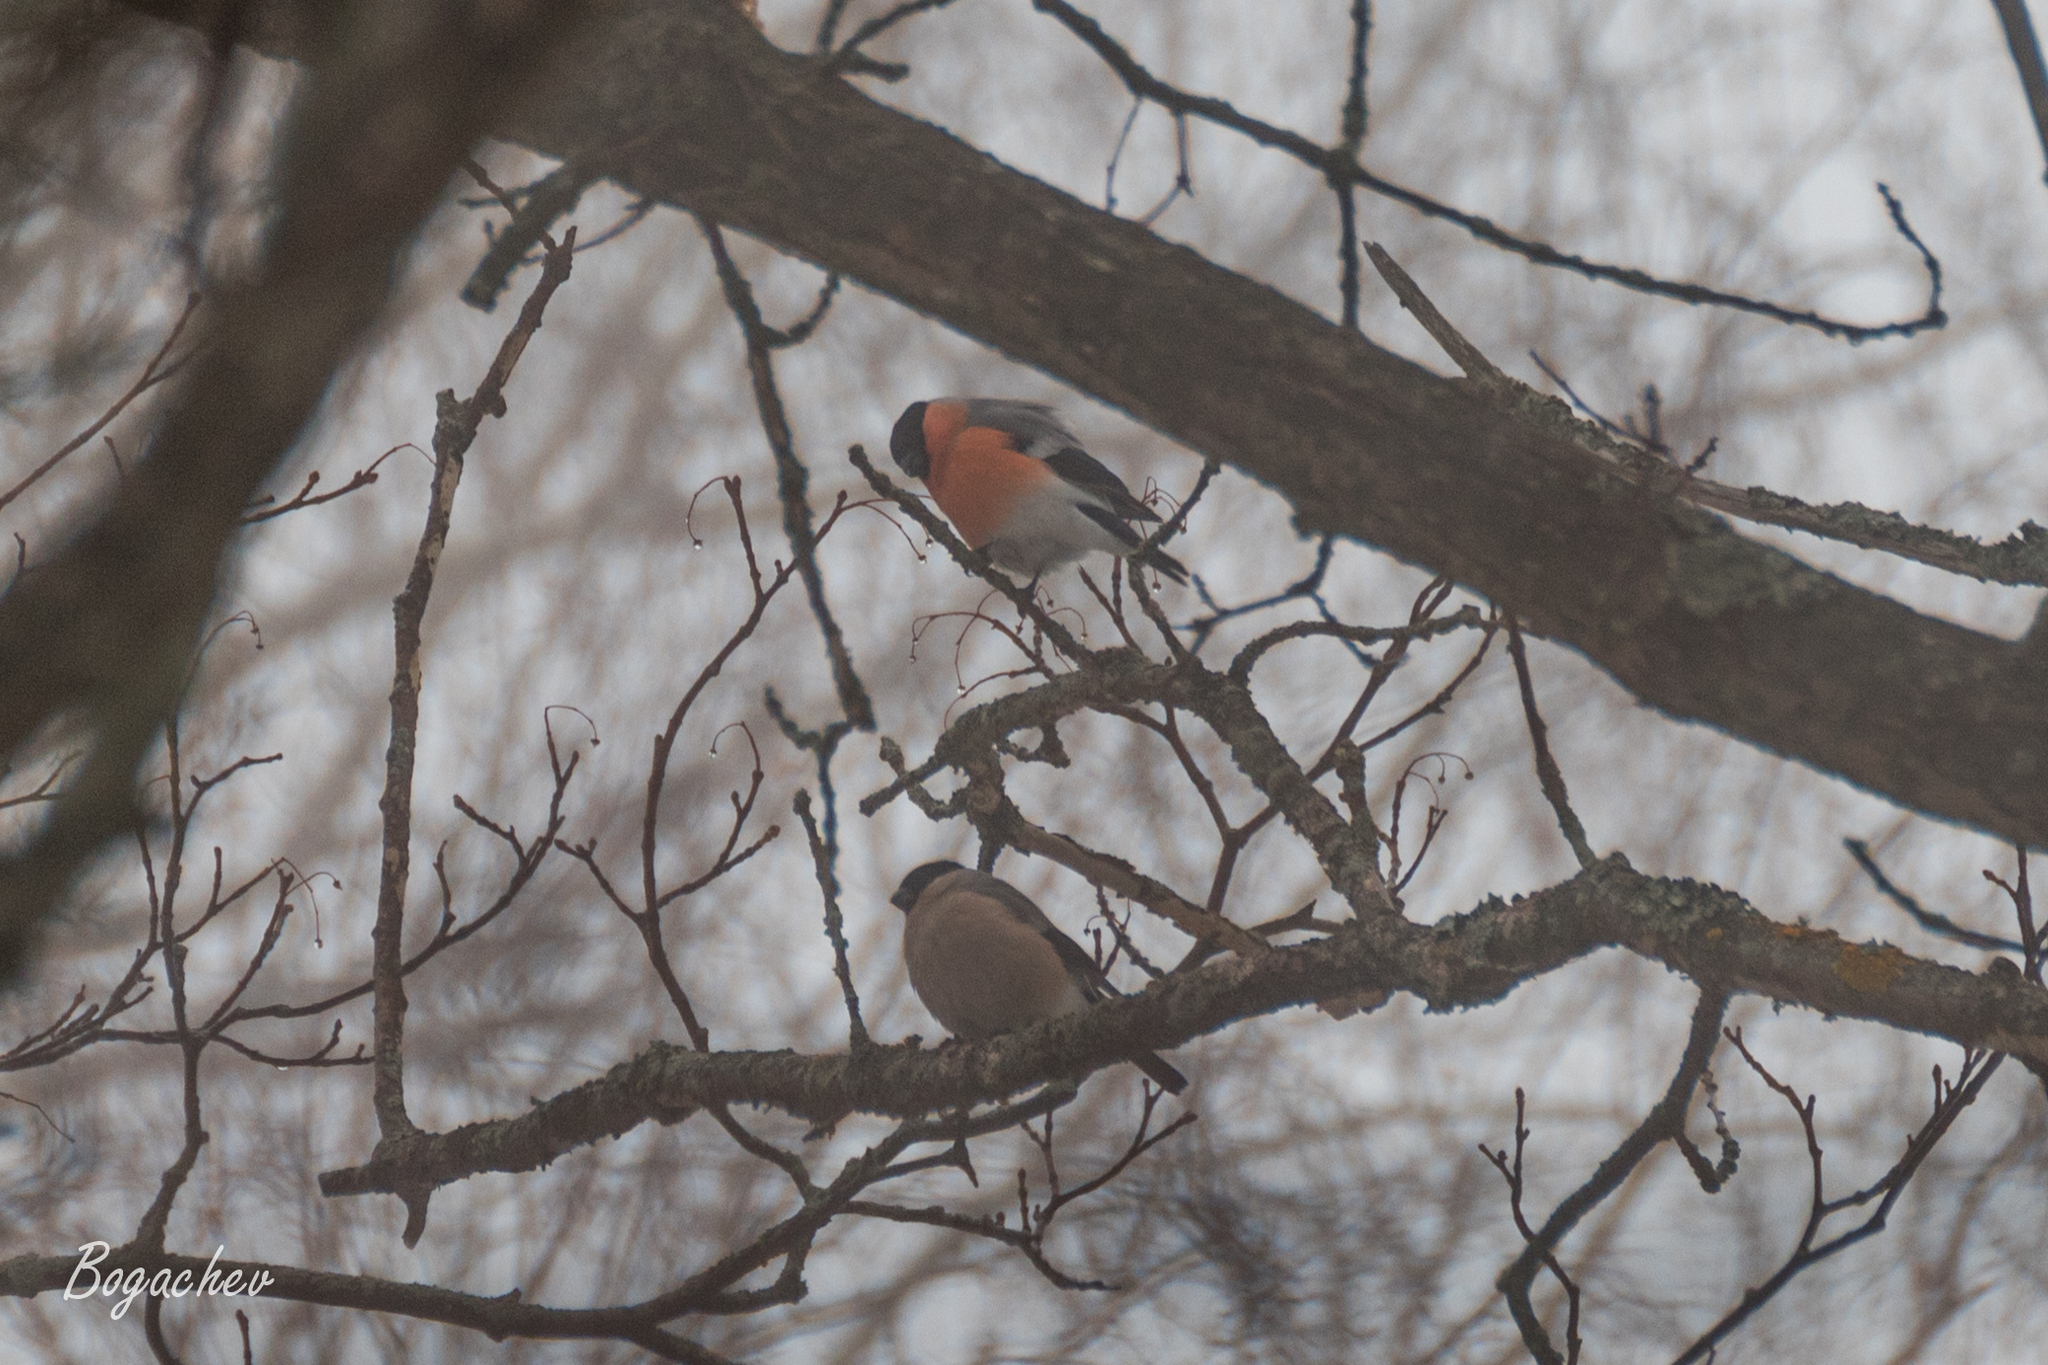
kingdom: Animalia
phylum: Chordata
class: Aves
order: Passeriformes
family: Fringillidae
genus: Pyrrhula
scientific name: Pyrrhula pyrrhula
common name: Eurasian bullfinch
